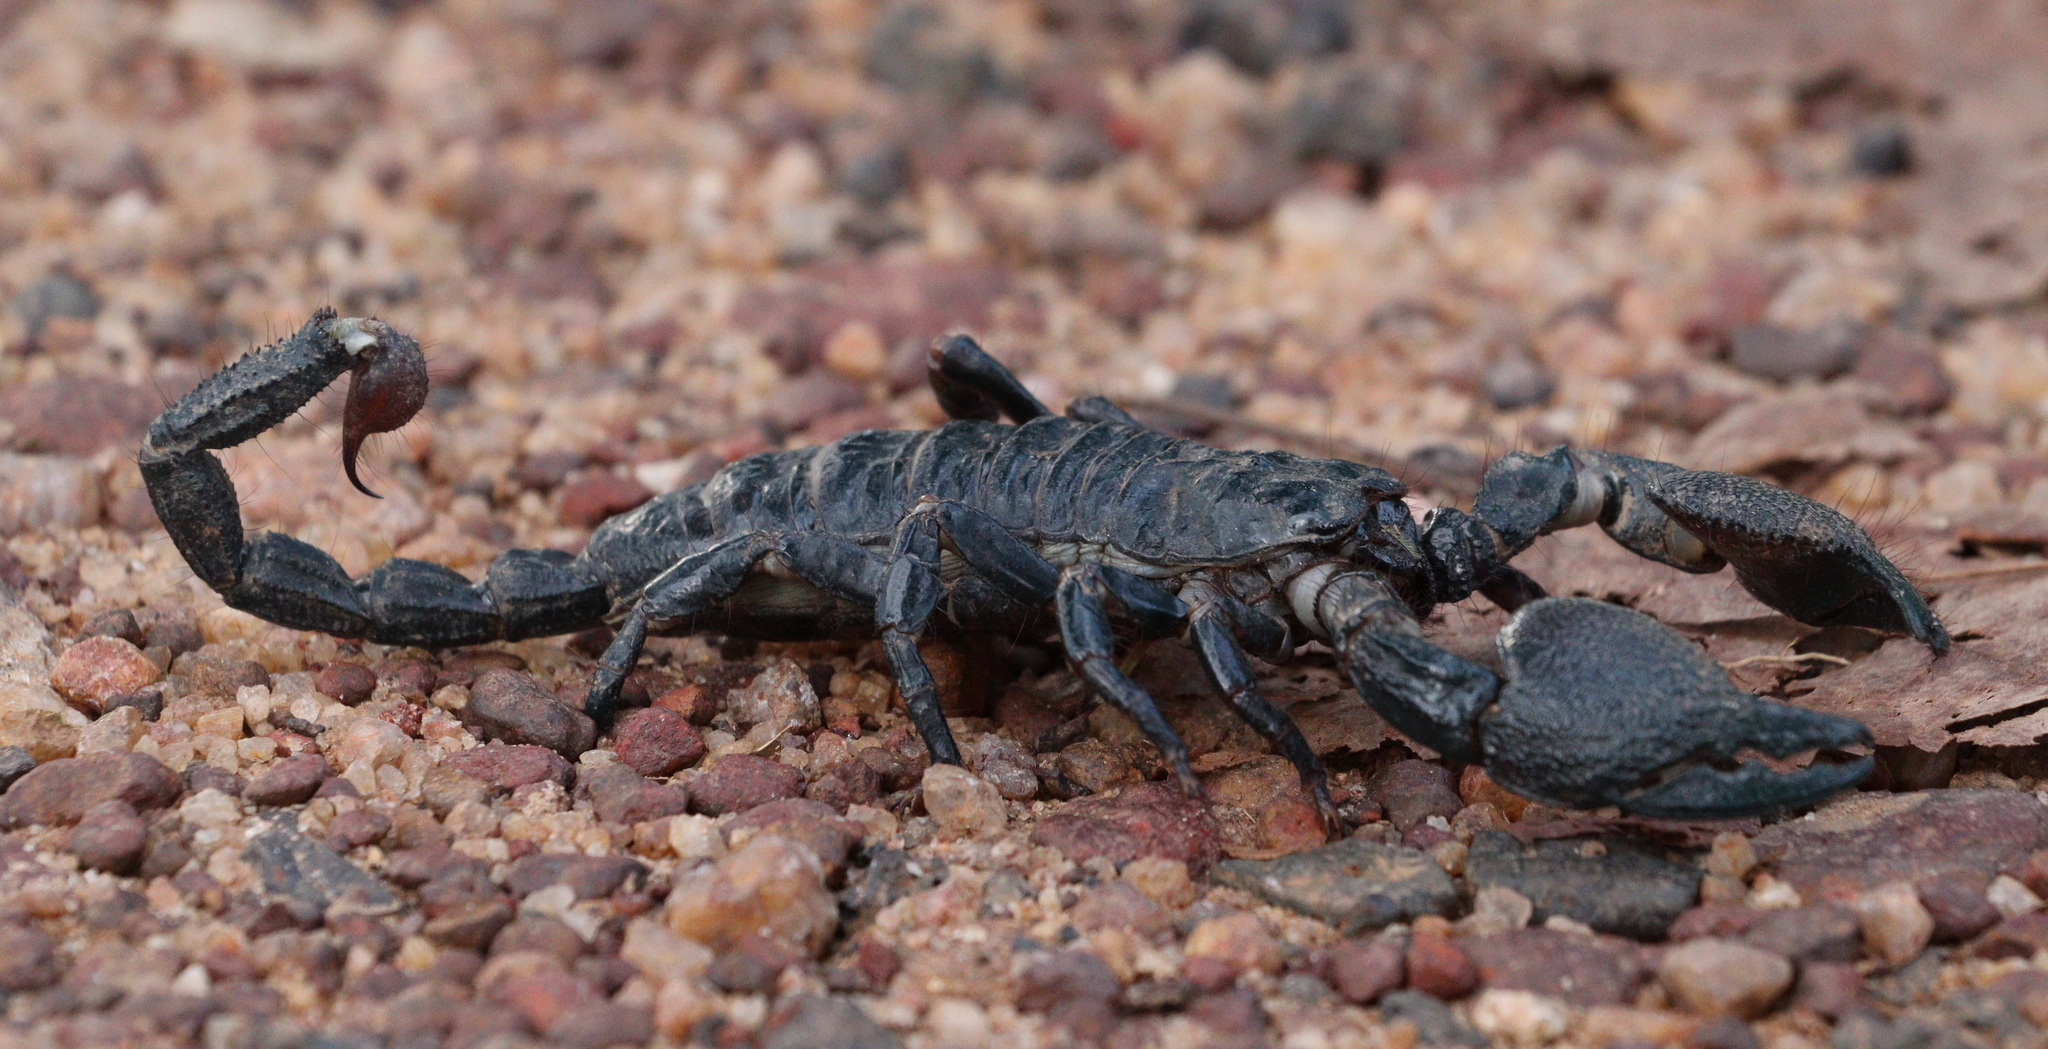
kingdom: Animalia
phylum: Arthropoda
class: Arachnida
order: Scorpiones
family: Scorpionidae
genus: Pandinus
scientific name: Pandinus imperator
